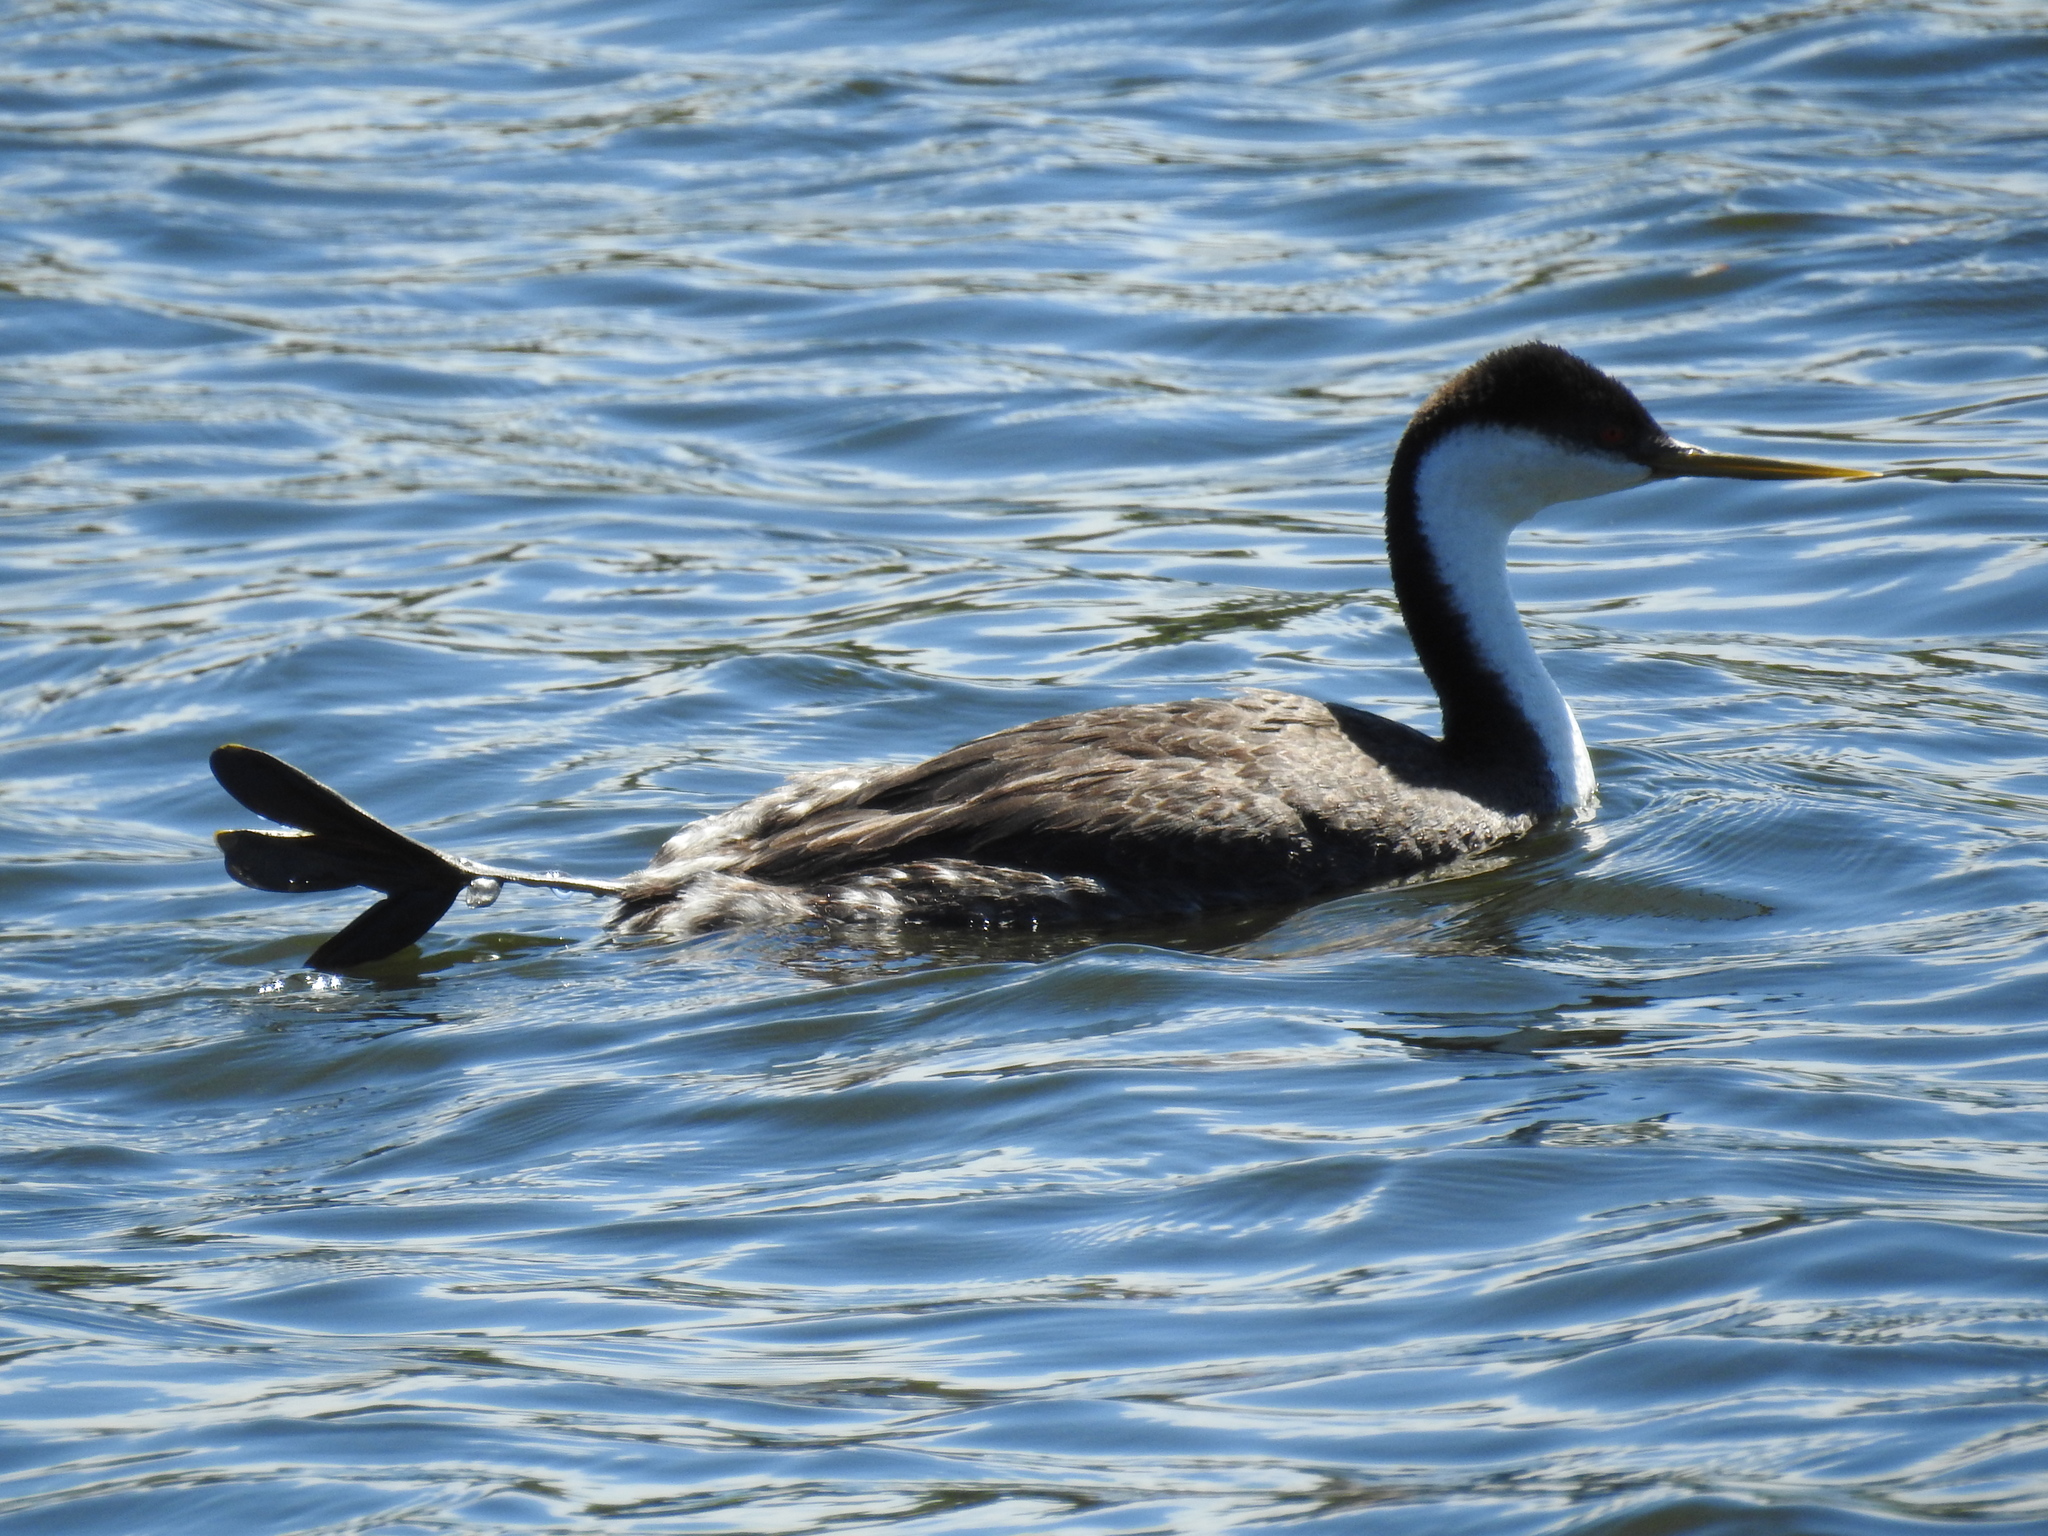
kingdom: Animalia
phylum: Chordata
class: Aves
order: Podicipediformes
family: Podicipedidae
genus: Aechmophorus
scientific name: Aechmophorus occidentalis
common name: Western grebe
